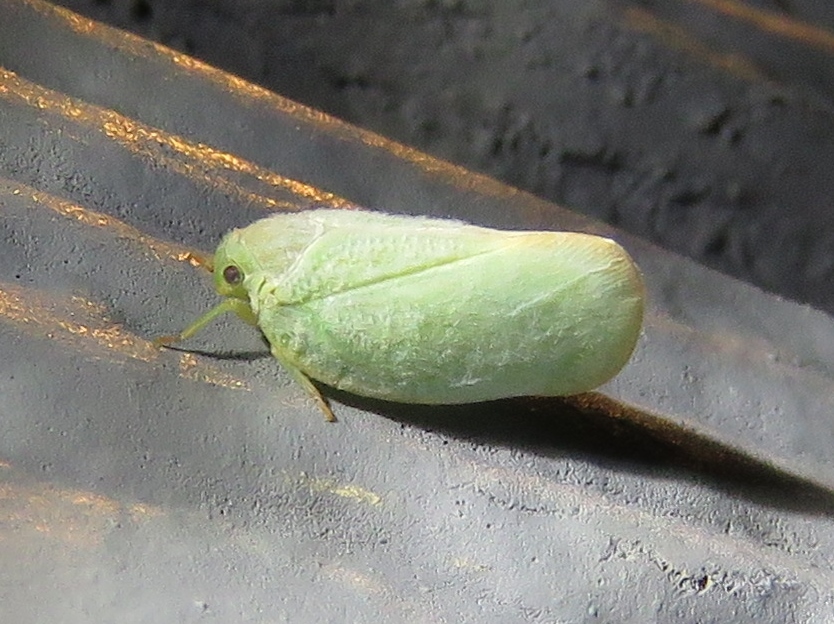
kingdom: Animalia
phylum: Arthropoda
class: Insecta
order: Hemiptera
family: Flatidae
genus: Ormenoides
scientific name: Ormenoides venusta
